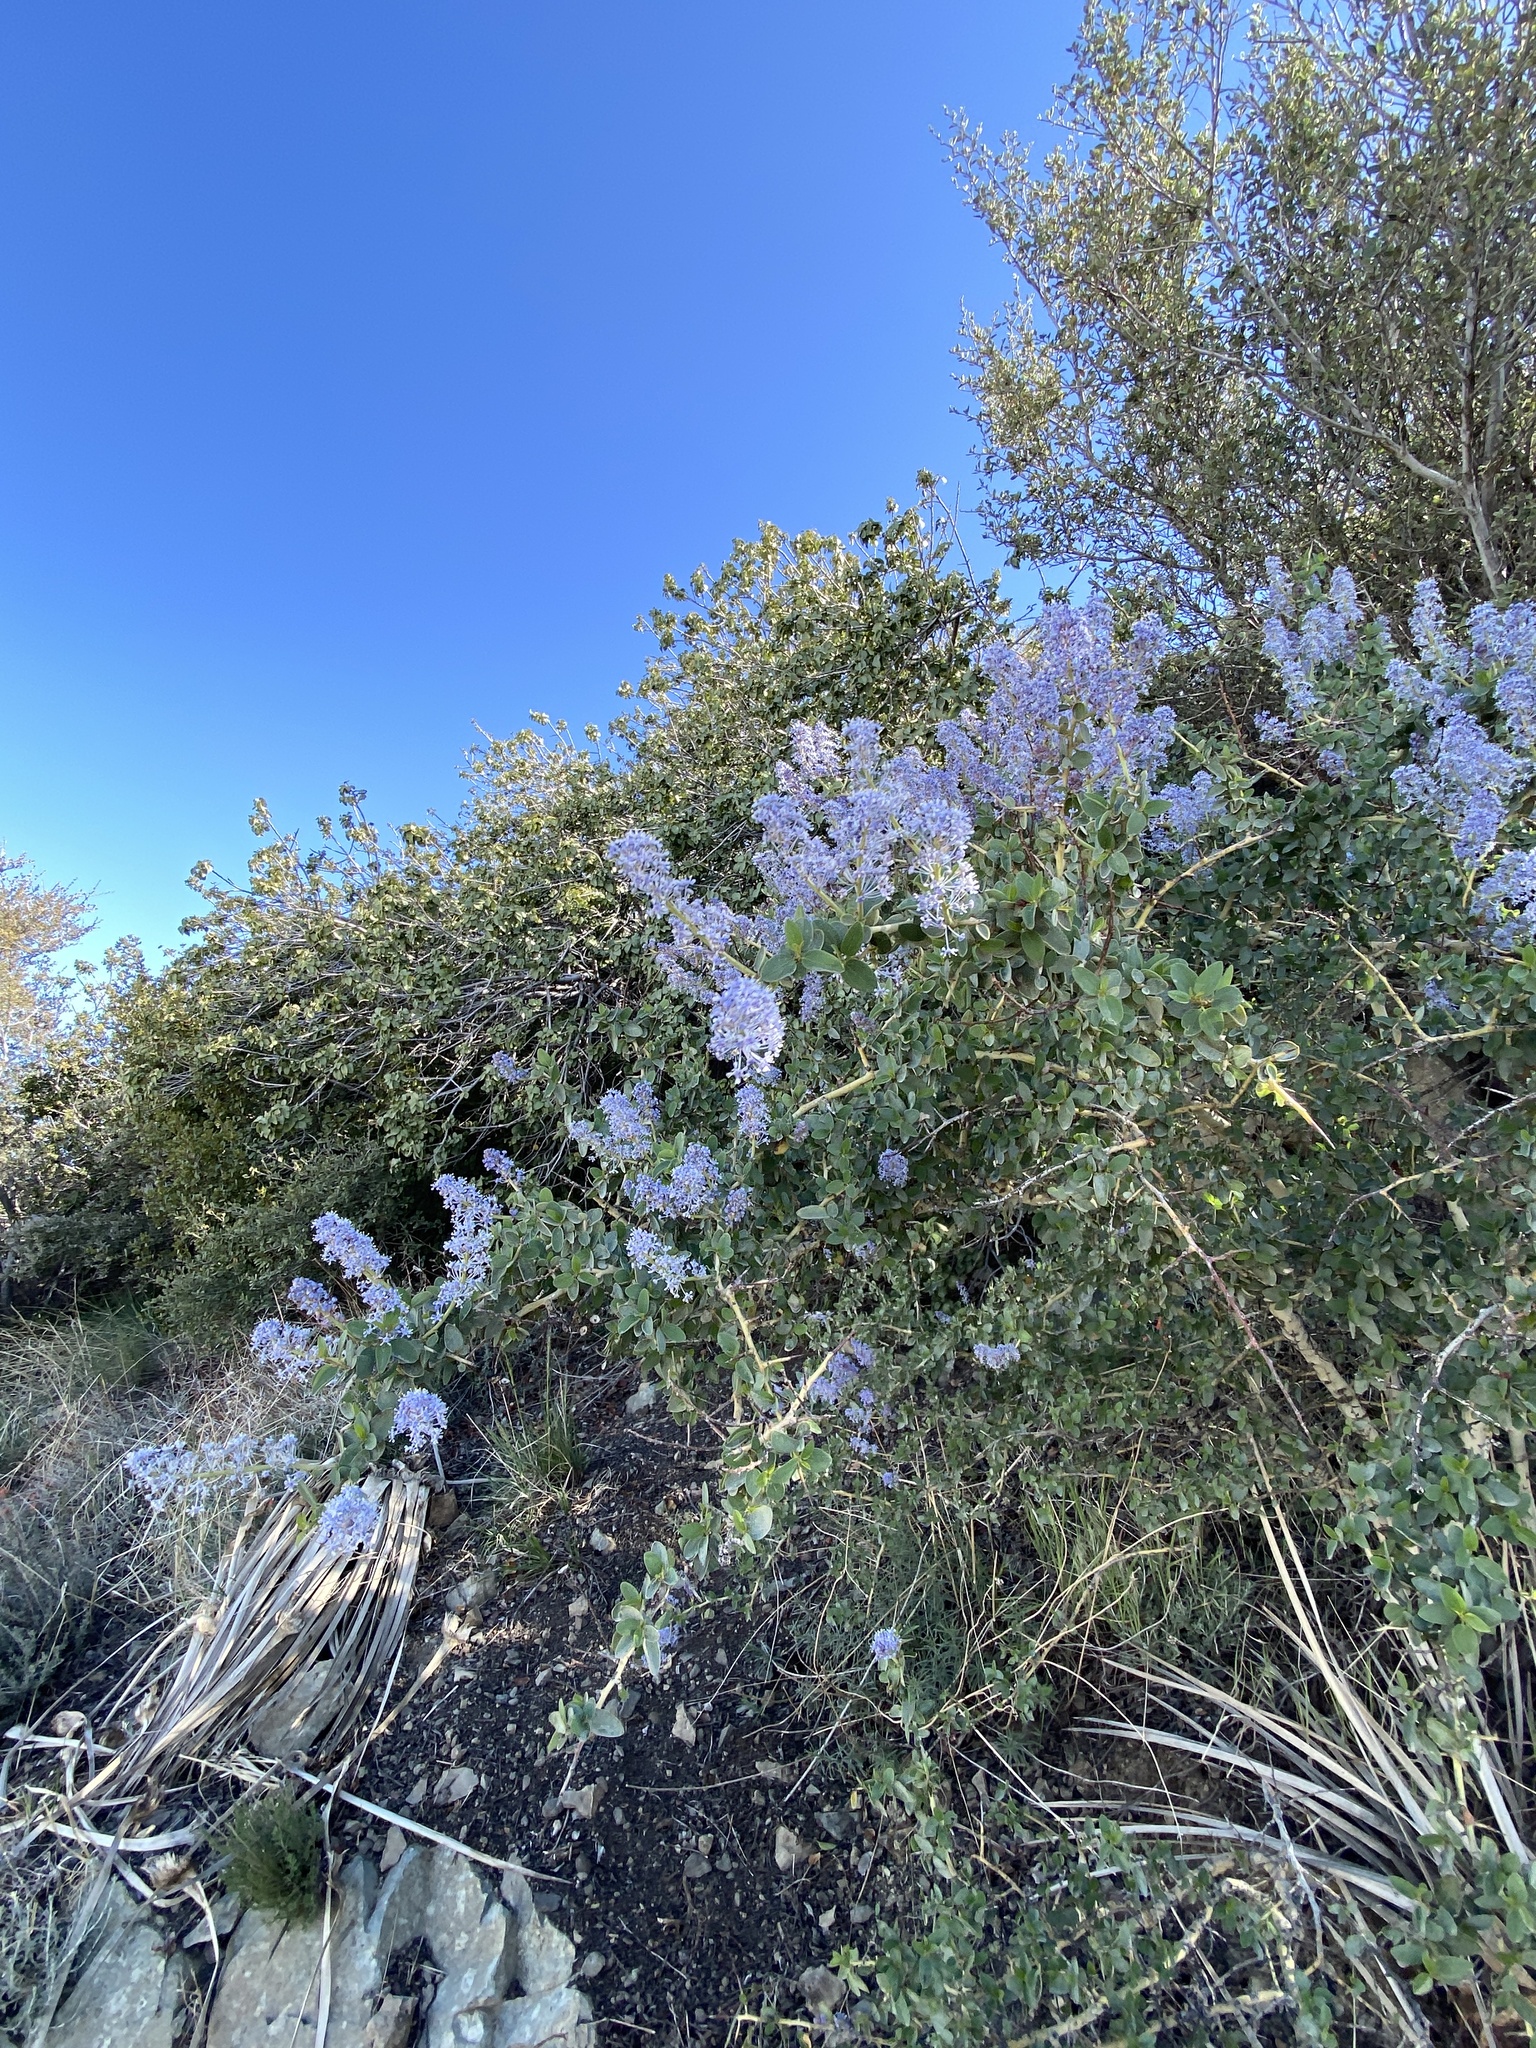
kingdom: Plantae
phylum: Tracheophyta
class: Magnoliopsida
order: Rosales
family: Rhamnaceae
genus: Ceanothus
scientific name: Ceanothus leucodermis
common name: Chaparral whitethorn
